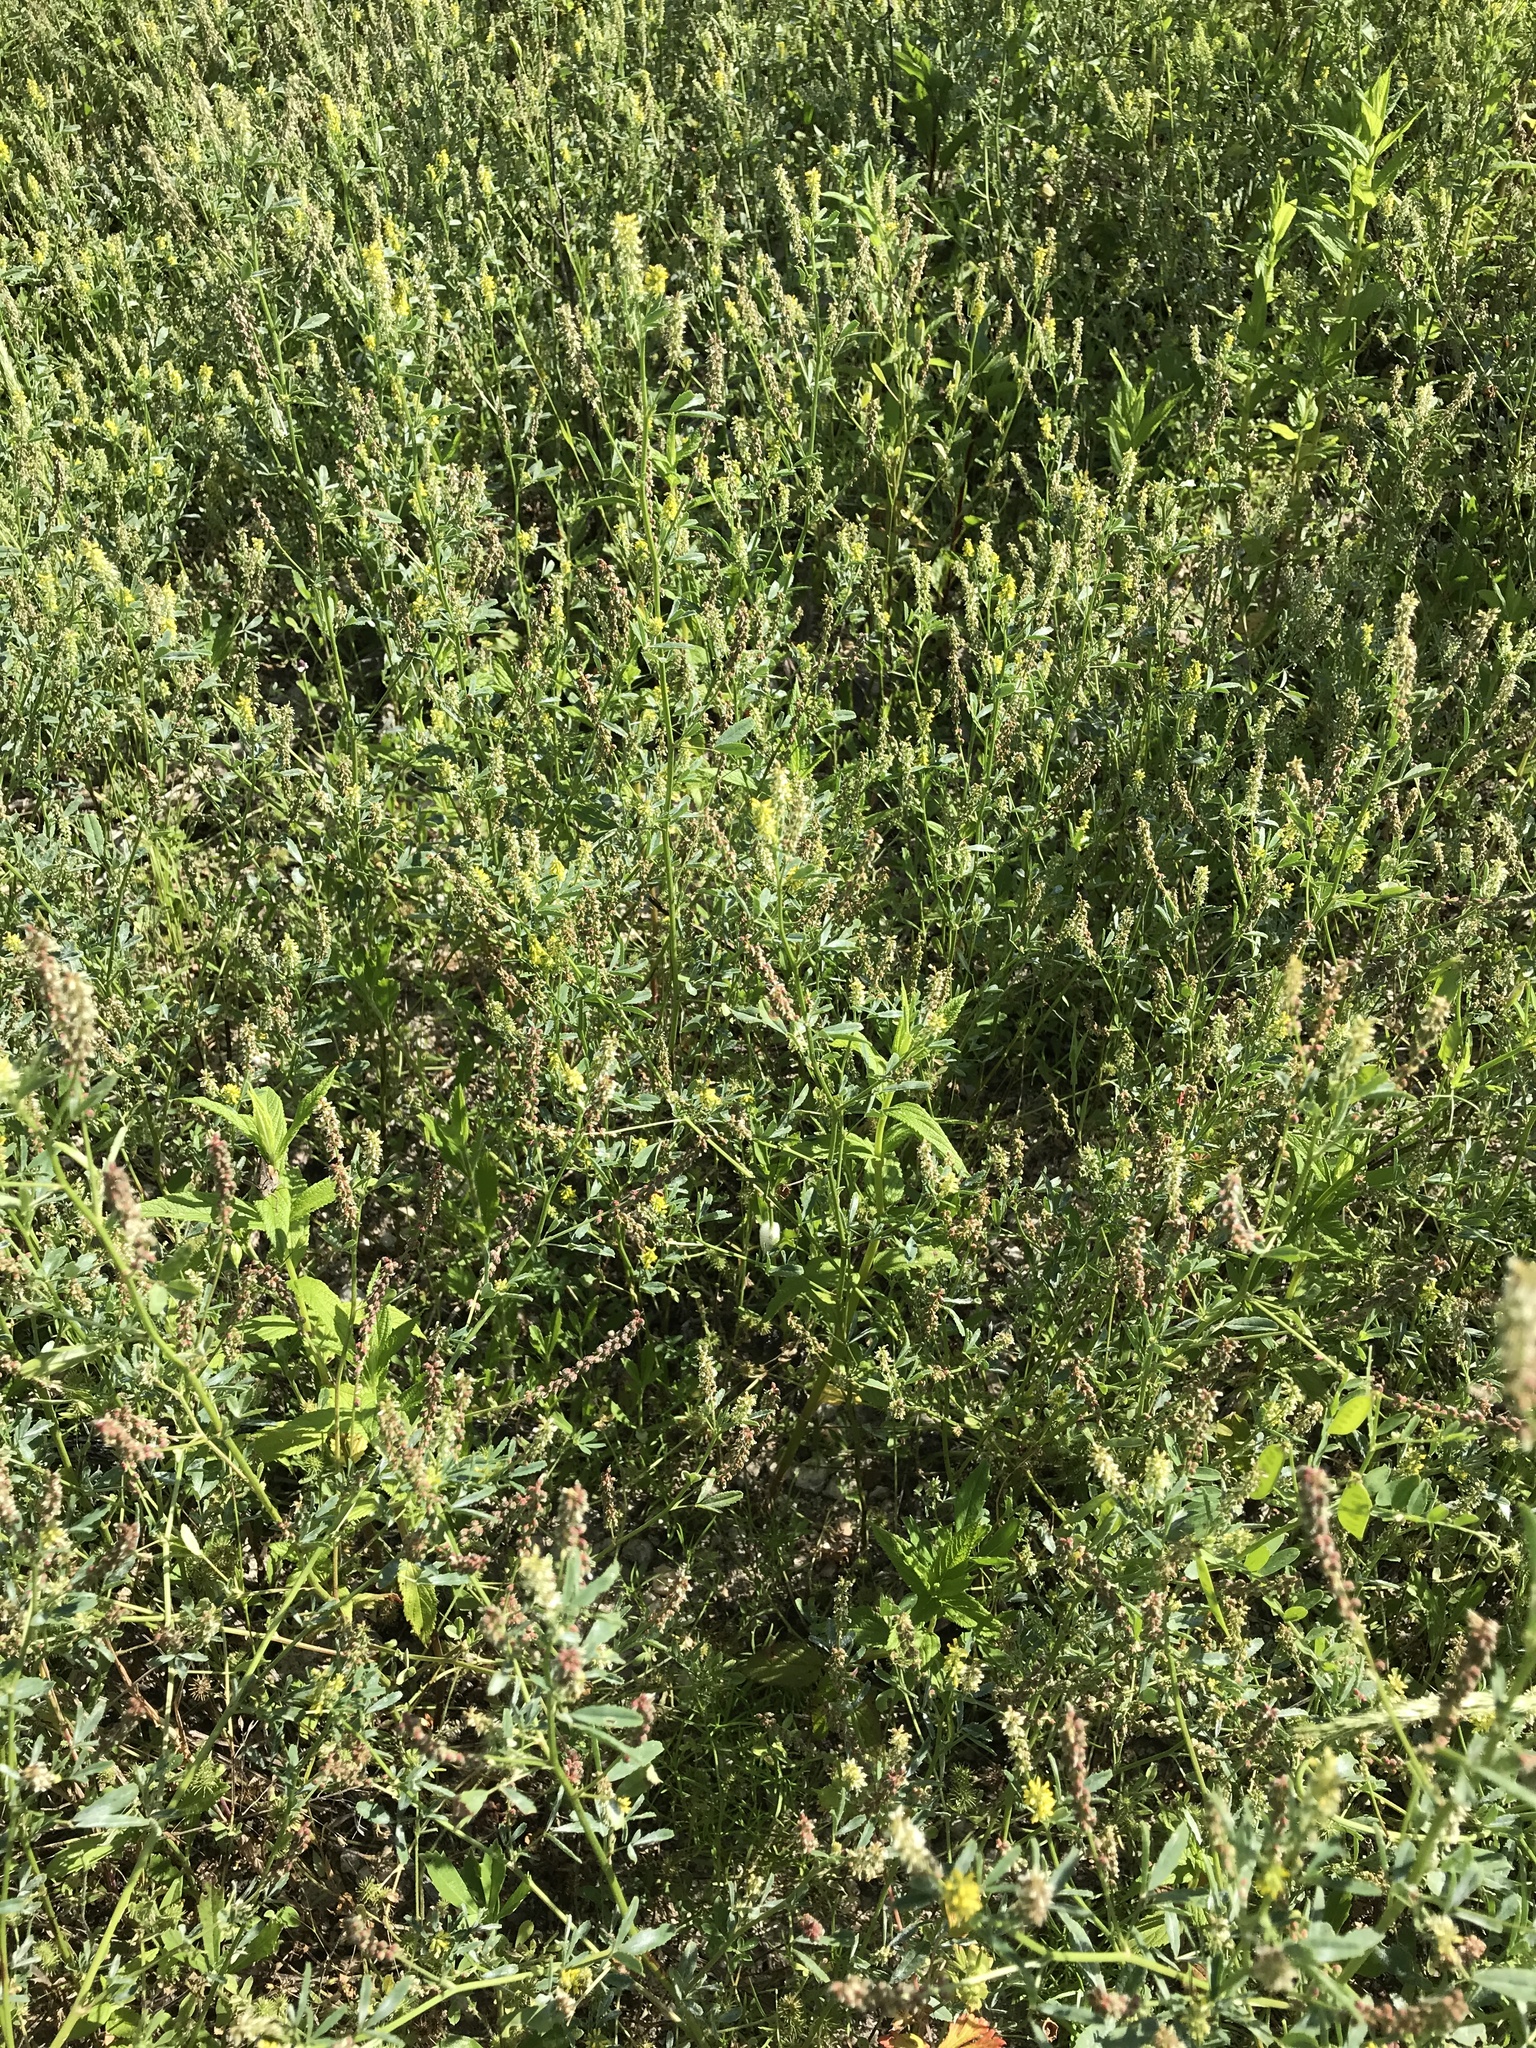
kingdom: Plantae
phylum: Tracheophyta
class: Magnoliopsida
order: Fabales
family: Fabaceae
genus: Melilotus
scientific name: Melilotus indicus
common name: Small melilot
